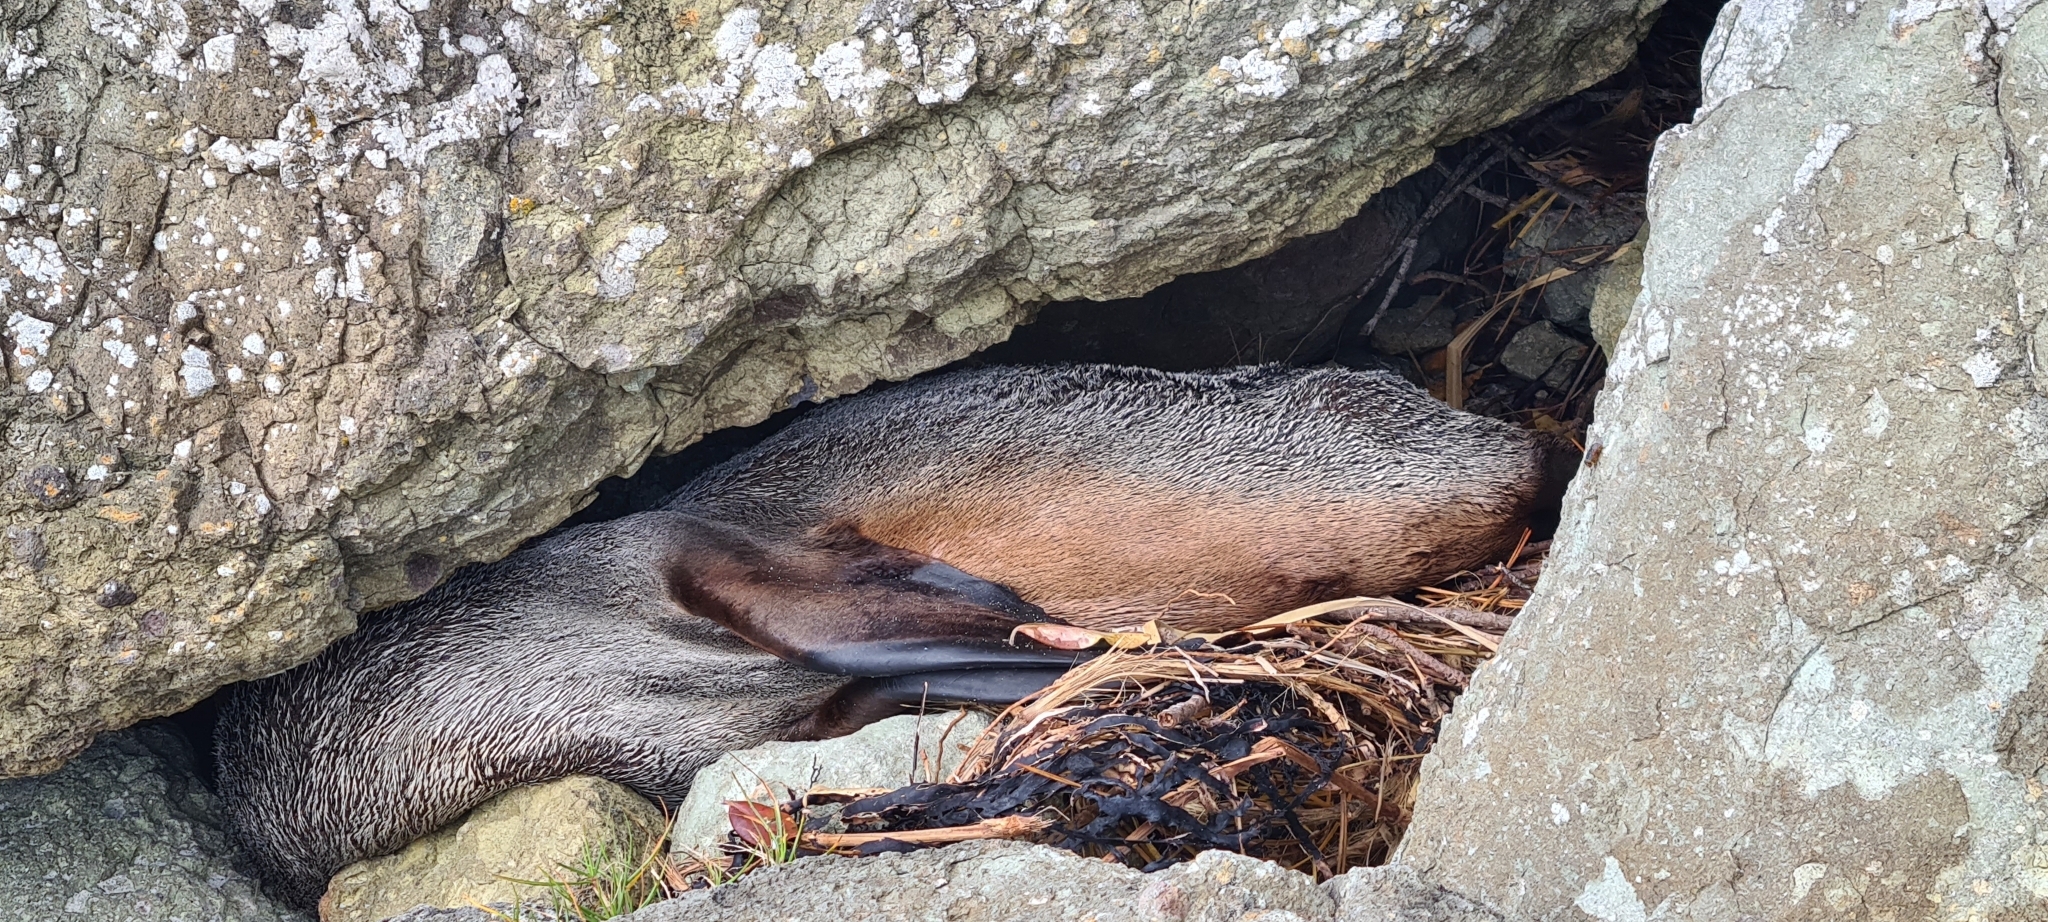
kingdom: Animalia
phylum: Chordata
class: Mammalia
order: Carnivora
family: Otariidae
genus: Arctocephalus
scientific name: Arctocephalus forsteri
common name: New zealand fur seal
